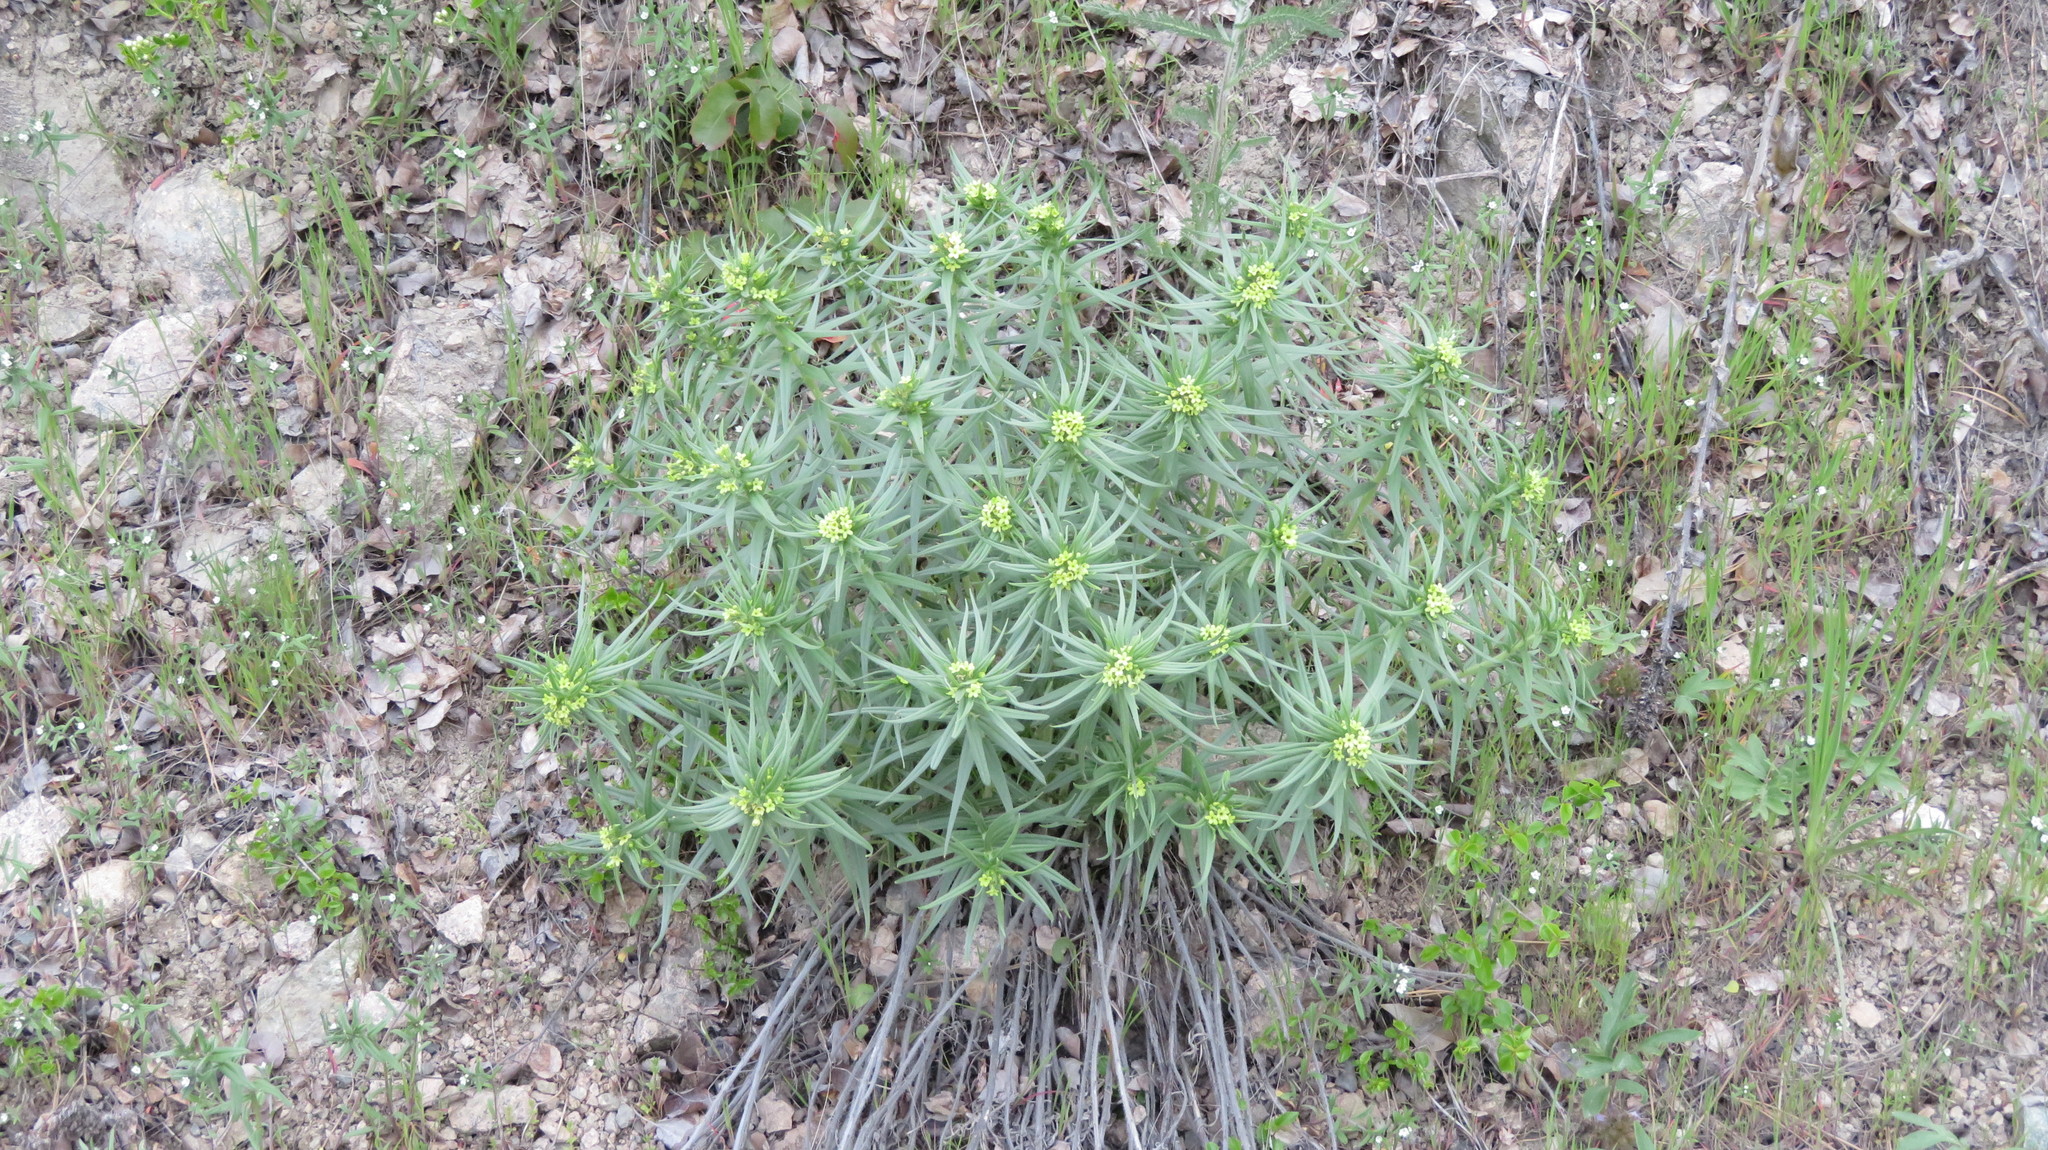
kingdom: Plantae
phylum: Tracheophyta
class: Magnoliopsida
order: Boraginales
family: Boraginaceae
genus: Lithospermum
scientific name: Lithospermum ruderale
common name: Western gromwell
